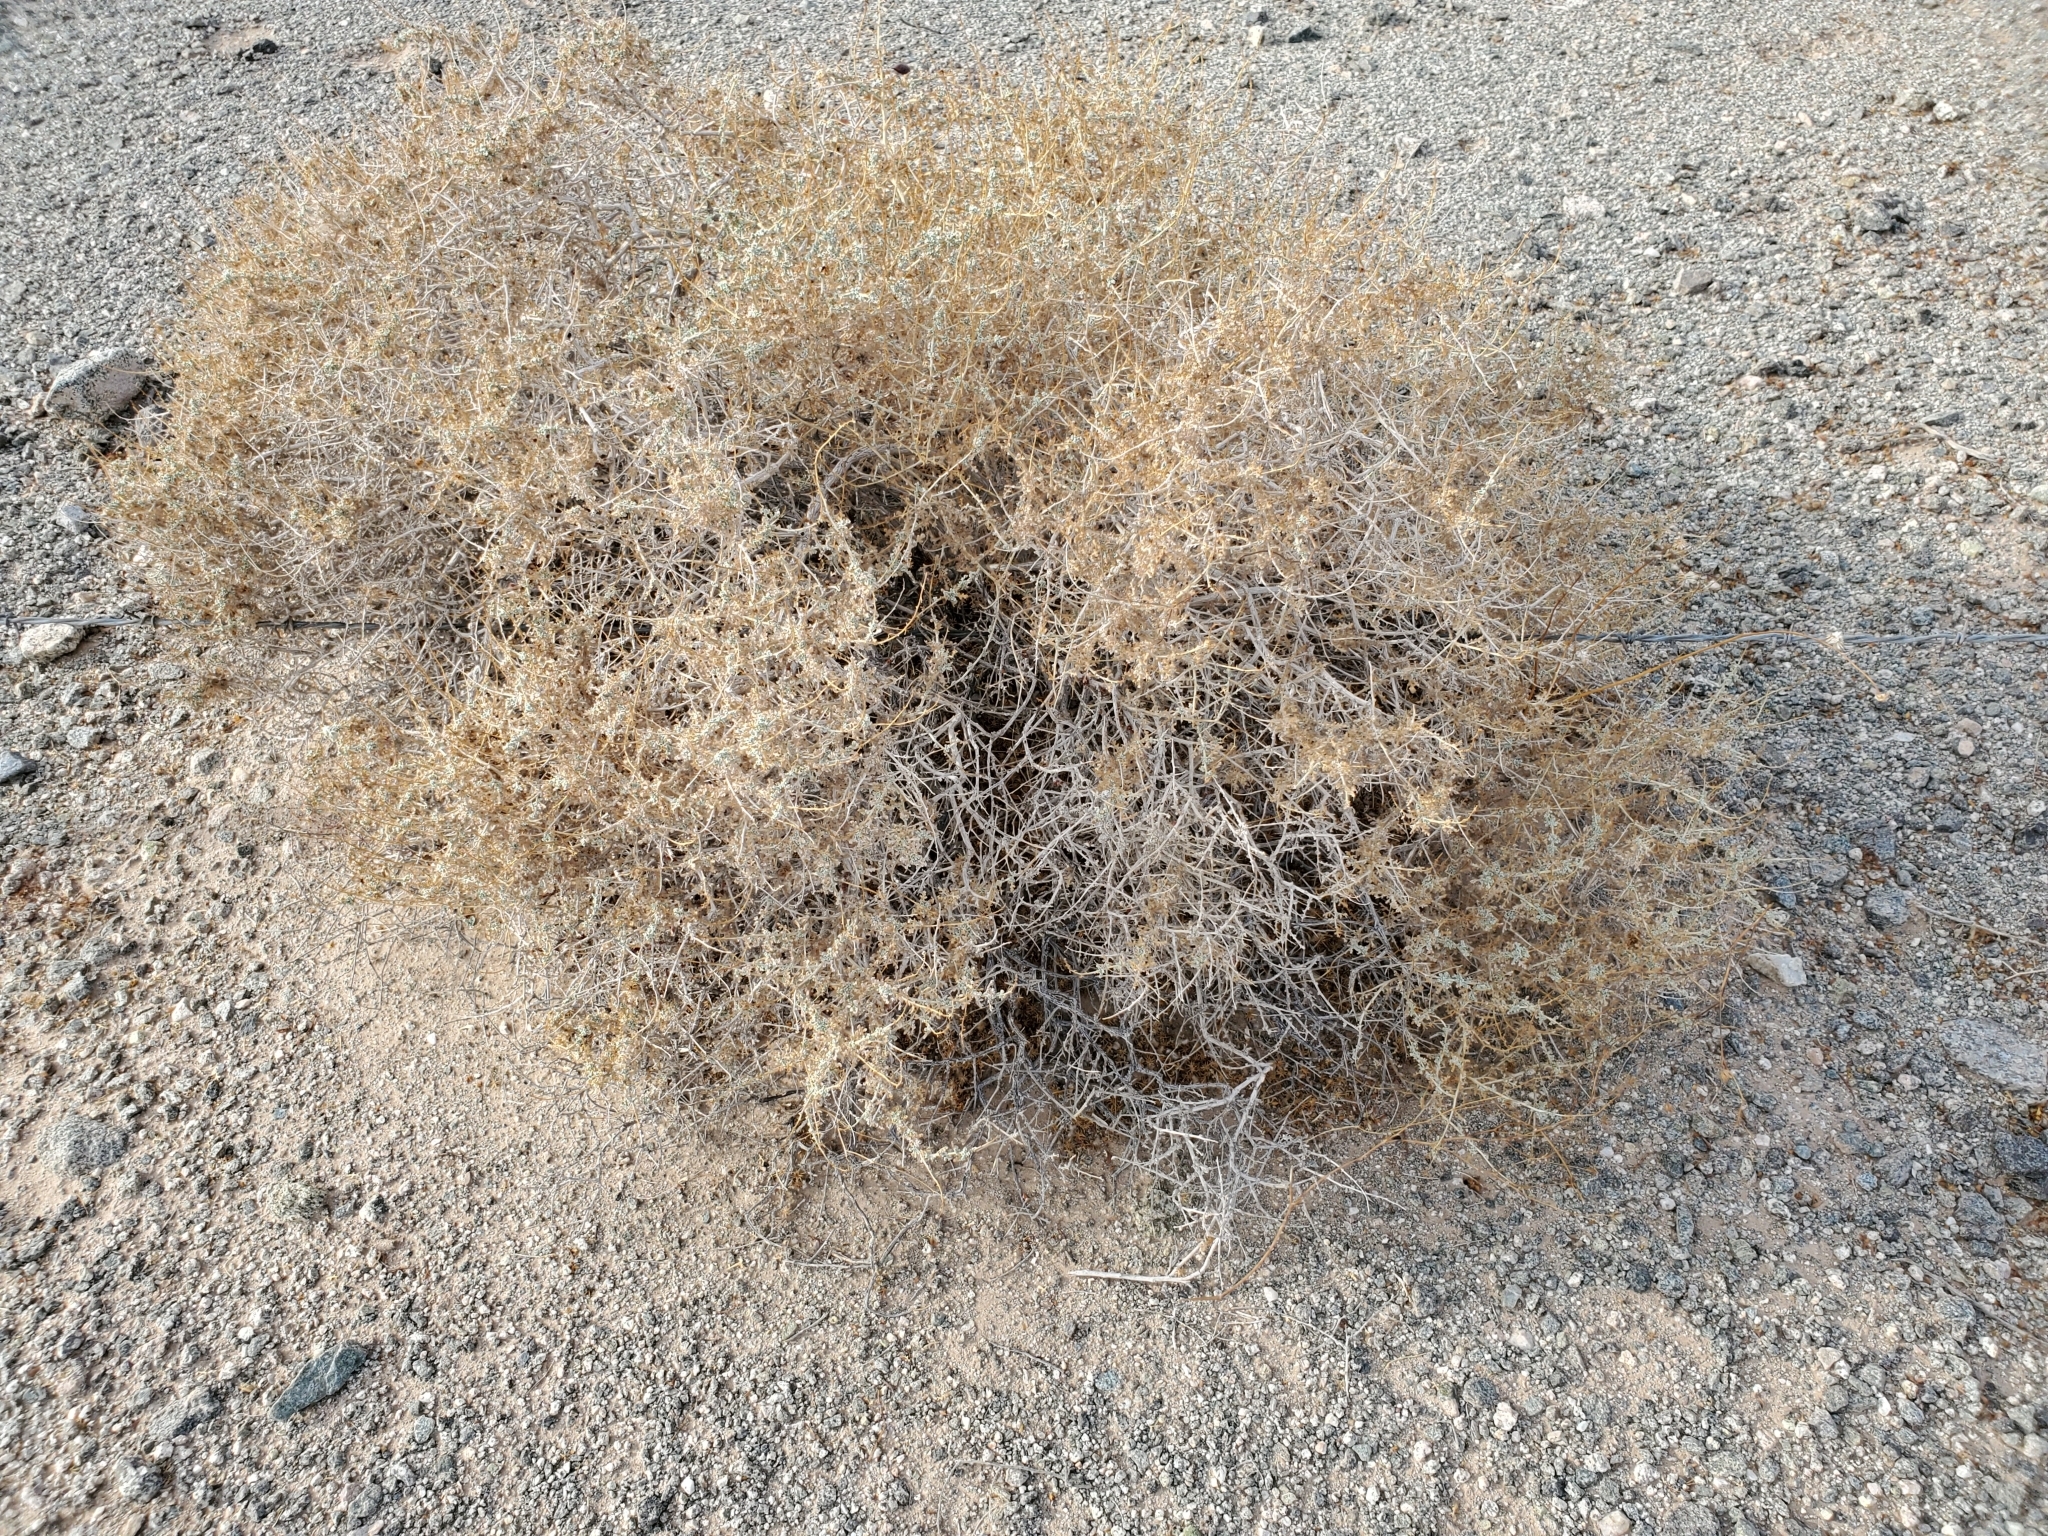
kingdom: Plantae
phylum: Tracheophyta
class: Magnoliopsida
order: Asterales
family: Asteraceae
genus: Ambrosia
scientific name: Ambrosia dumosa
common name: Bur-sage
